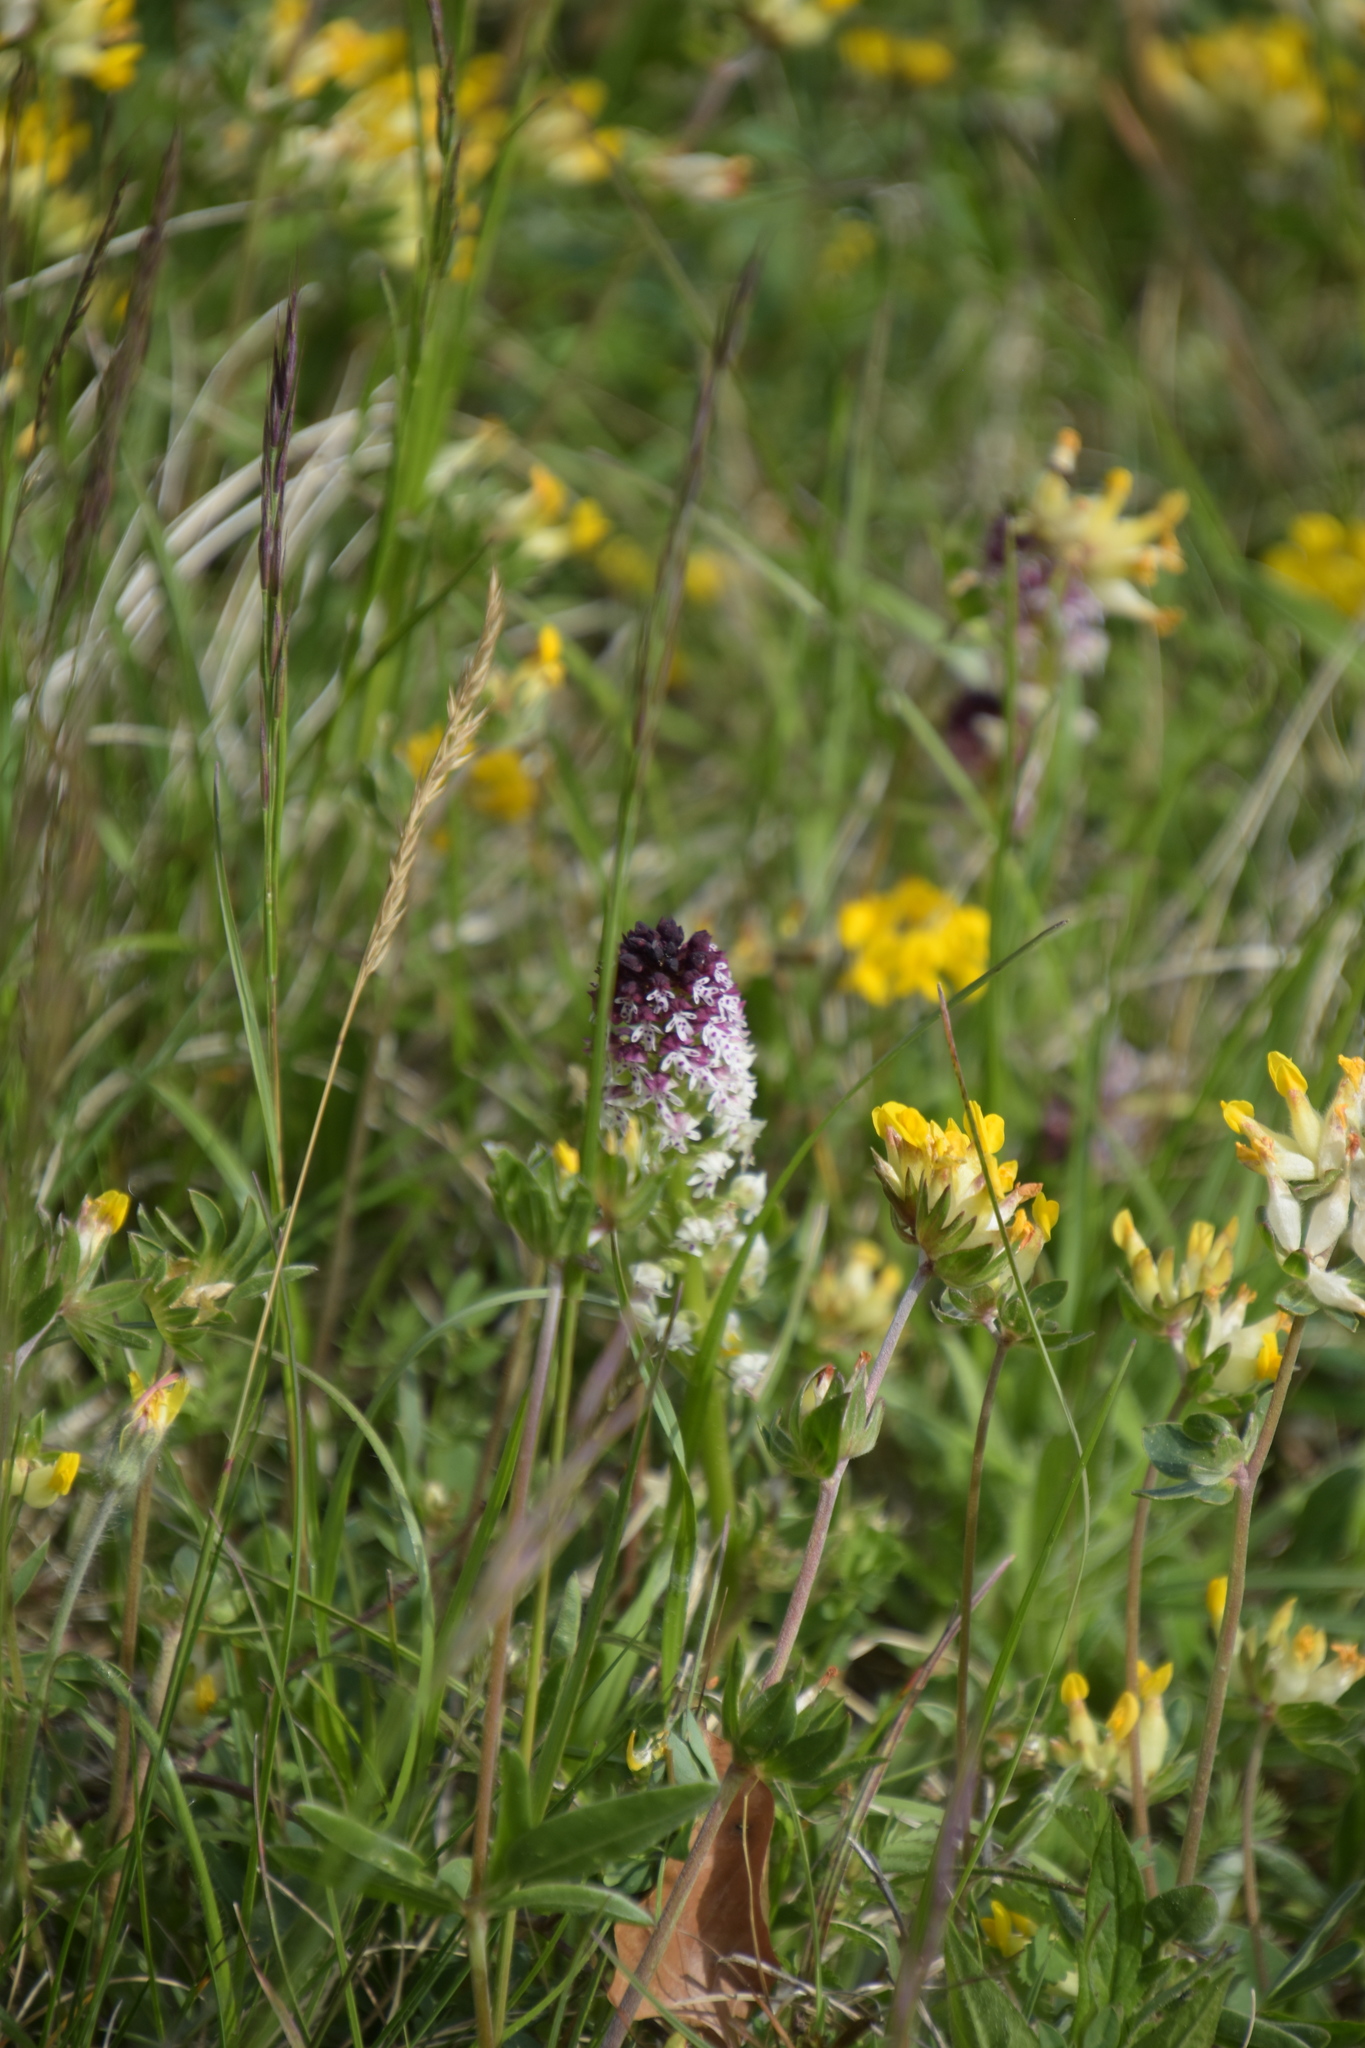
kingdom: Plantae
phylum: Tracheophyta
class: Liliopsida
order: Asparagales
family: Orchidaceae
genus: Neotinea
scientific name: Neotinea ustulata
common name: Burnt orchid
